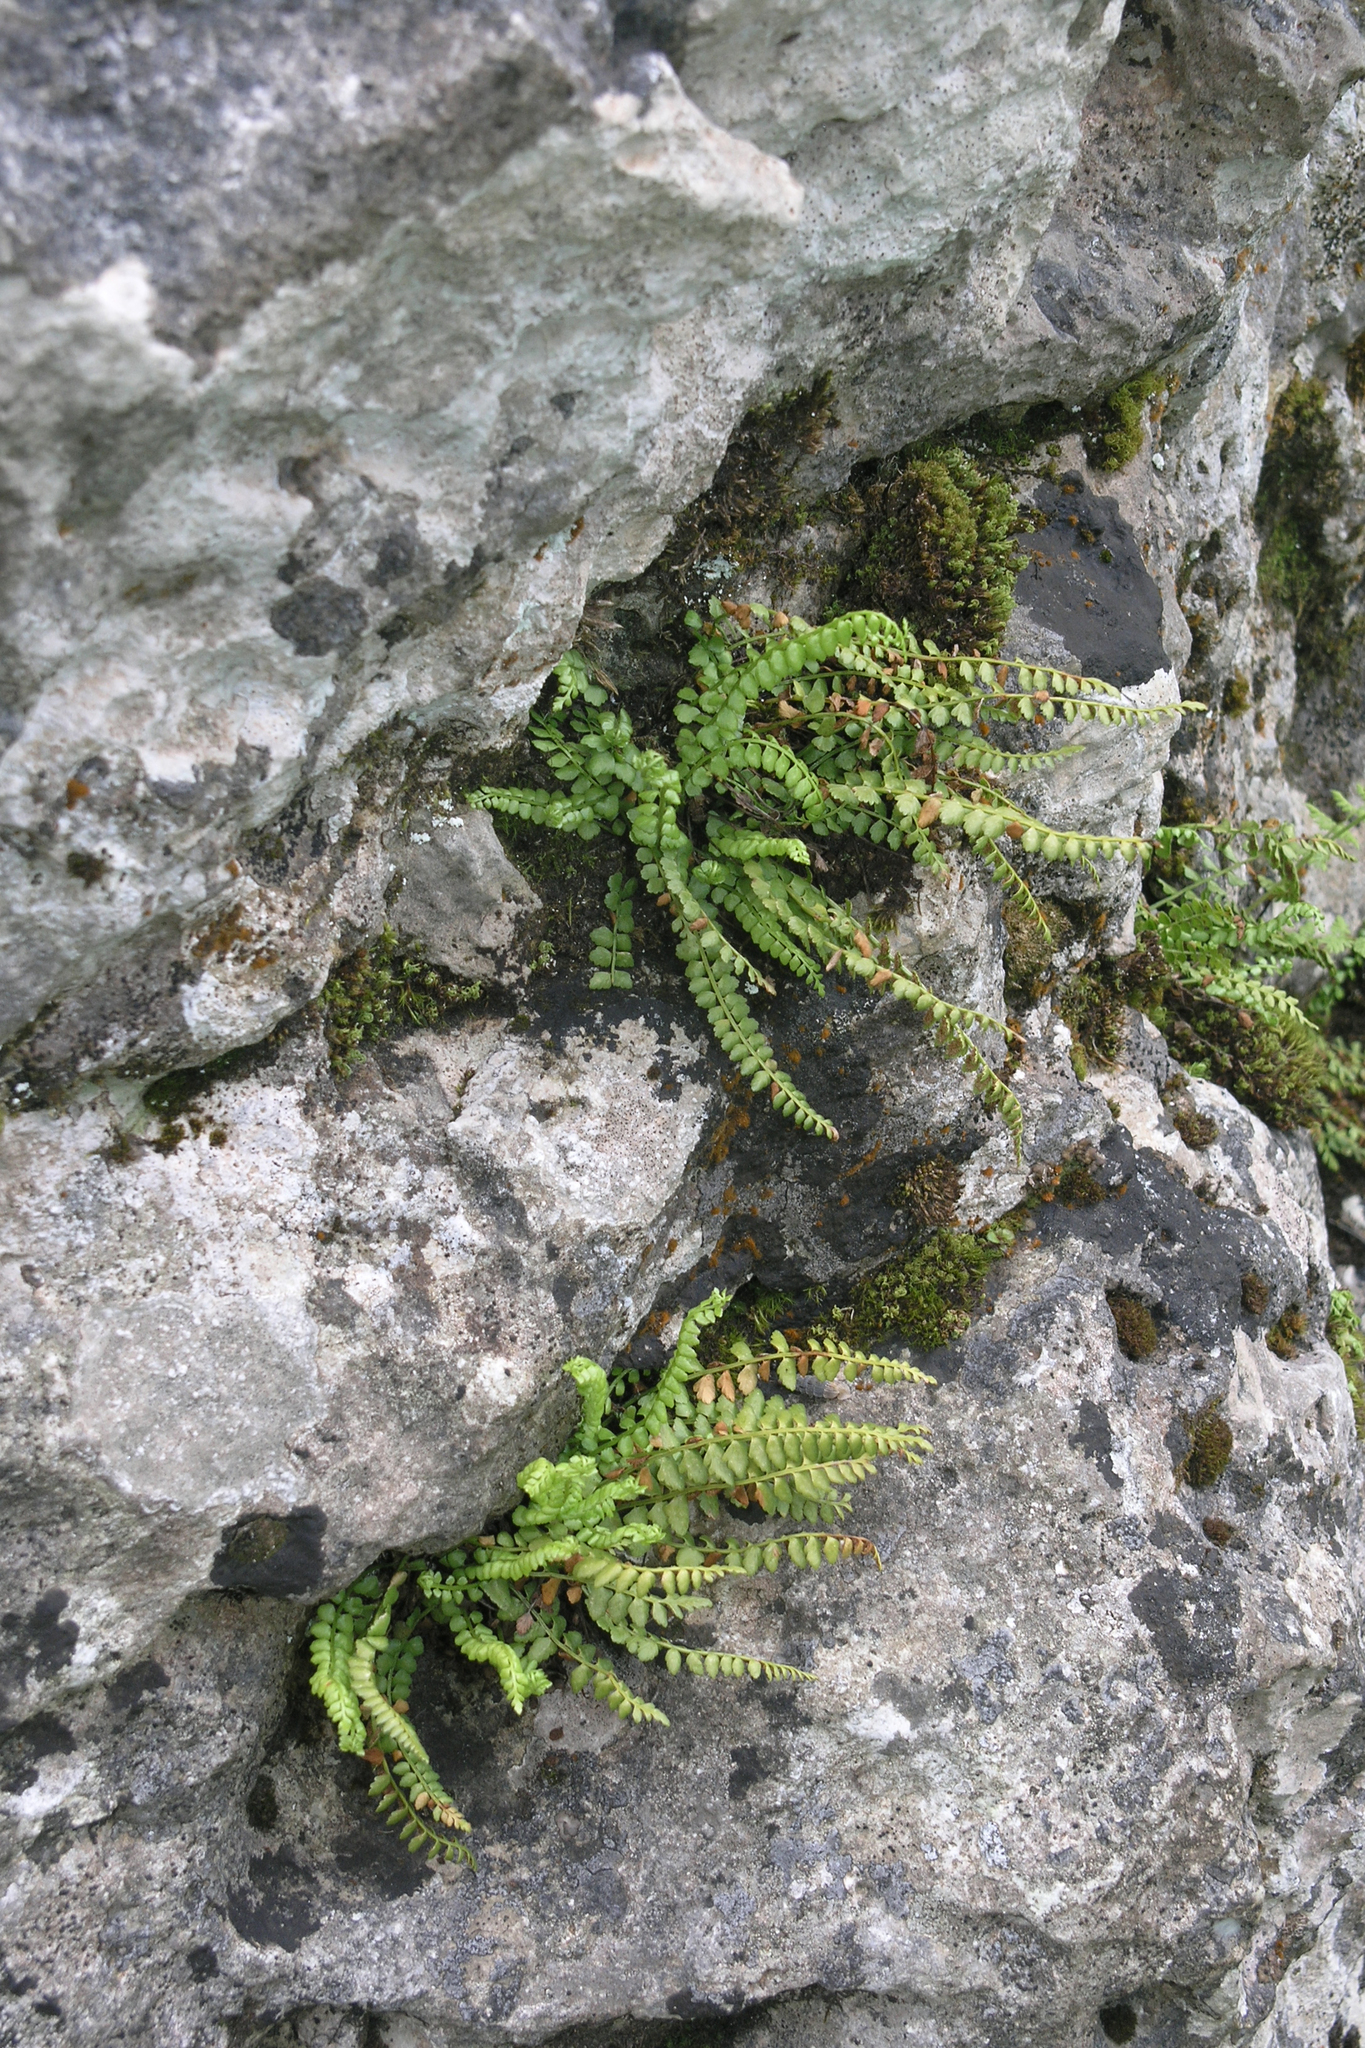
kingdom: Plantae
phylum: Tracheophyta
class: Polypodiopsida
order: Polypodiales
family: Aspleniaceae
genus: Asplenium
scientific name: Asplenium viride
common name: Green spleenwort
